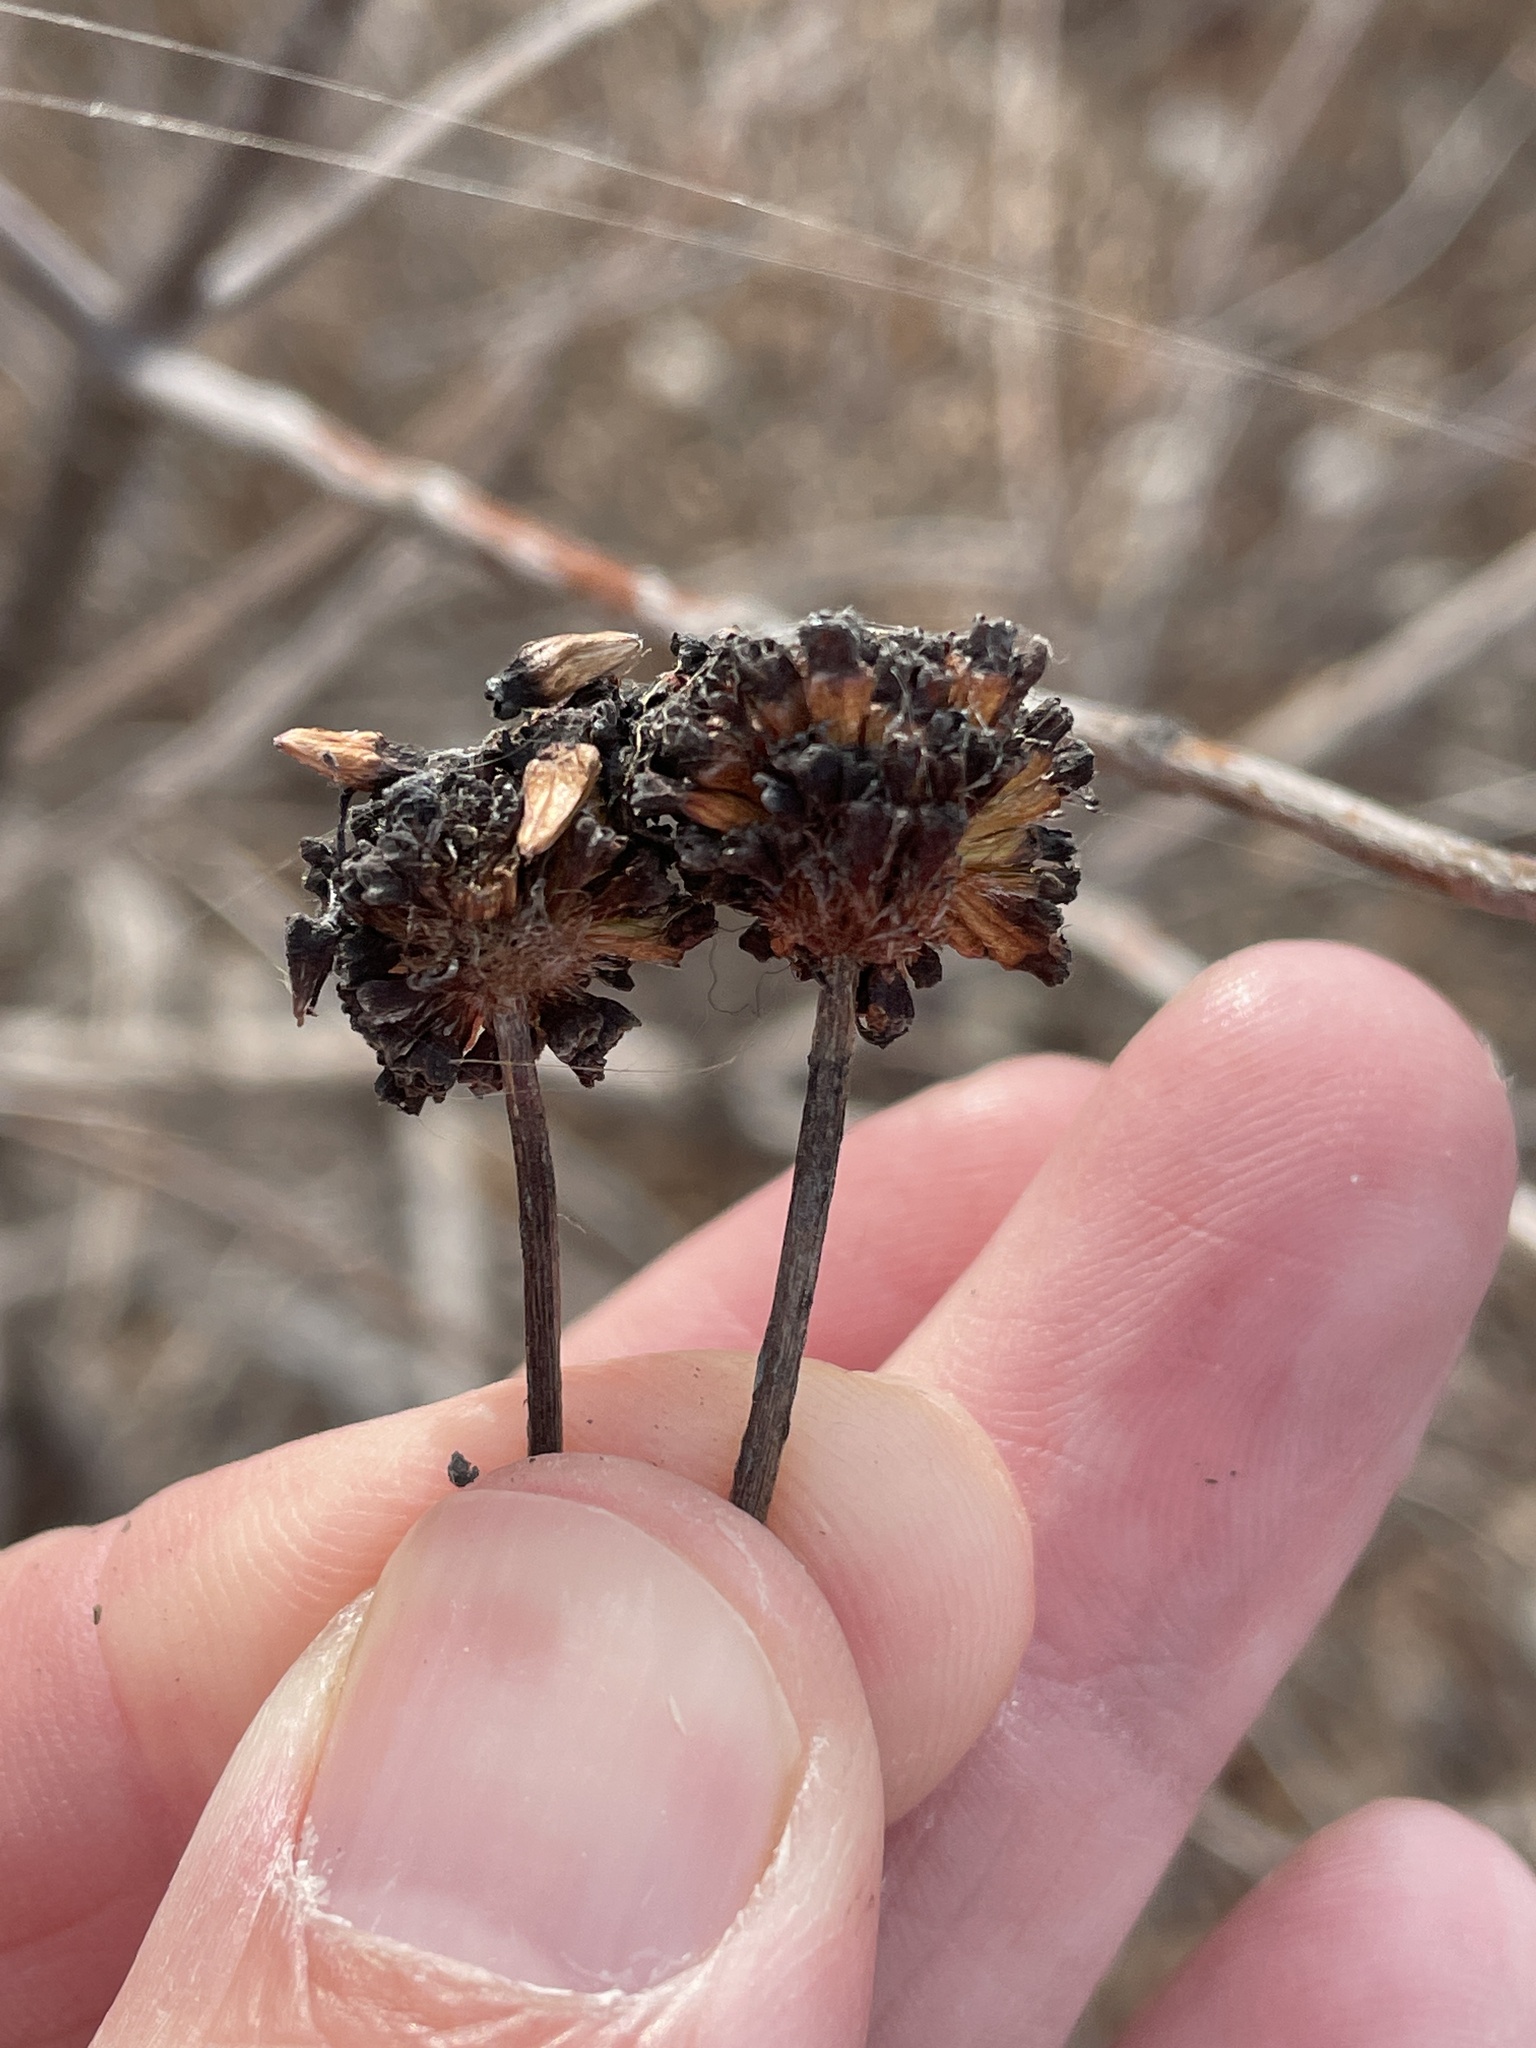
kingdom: Plantae
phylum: Tracheophyta
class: Magnoliopsida
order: Gentianales
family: Rubiaceae
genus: Cephalanthus
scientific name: Cephalanthus occidentalis
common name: Button-willow
